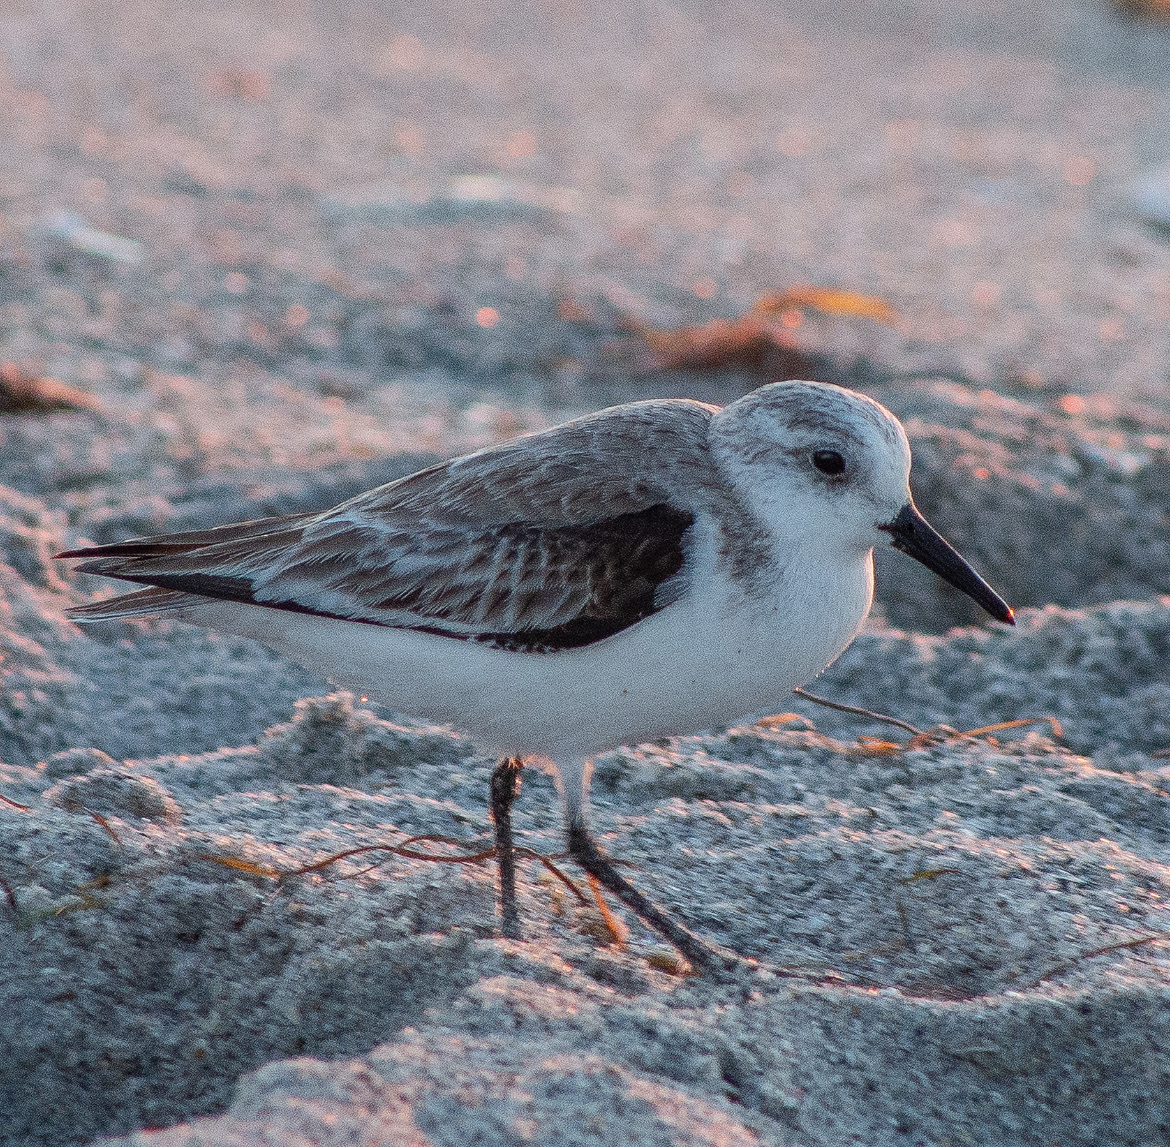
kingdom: Animalia
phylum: Chordata
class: Aves
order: Charadriiformes
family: Scolopacidae
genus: Calidris
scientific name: Calidris alba
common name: Sanderling
